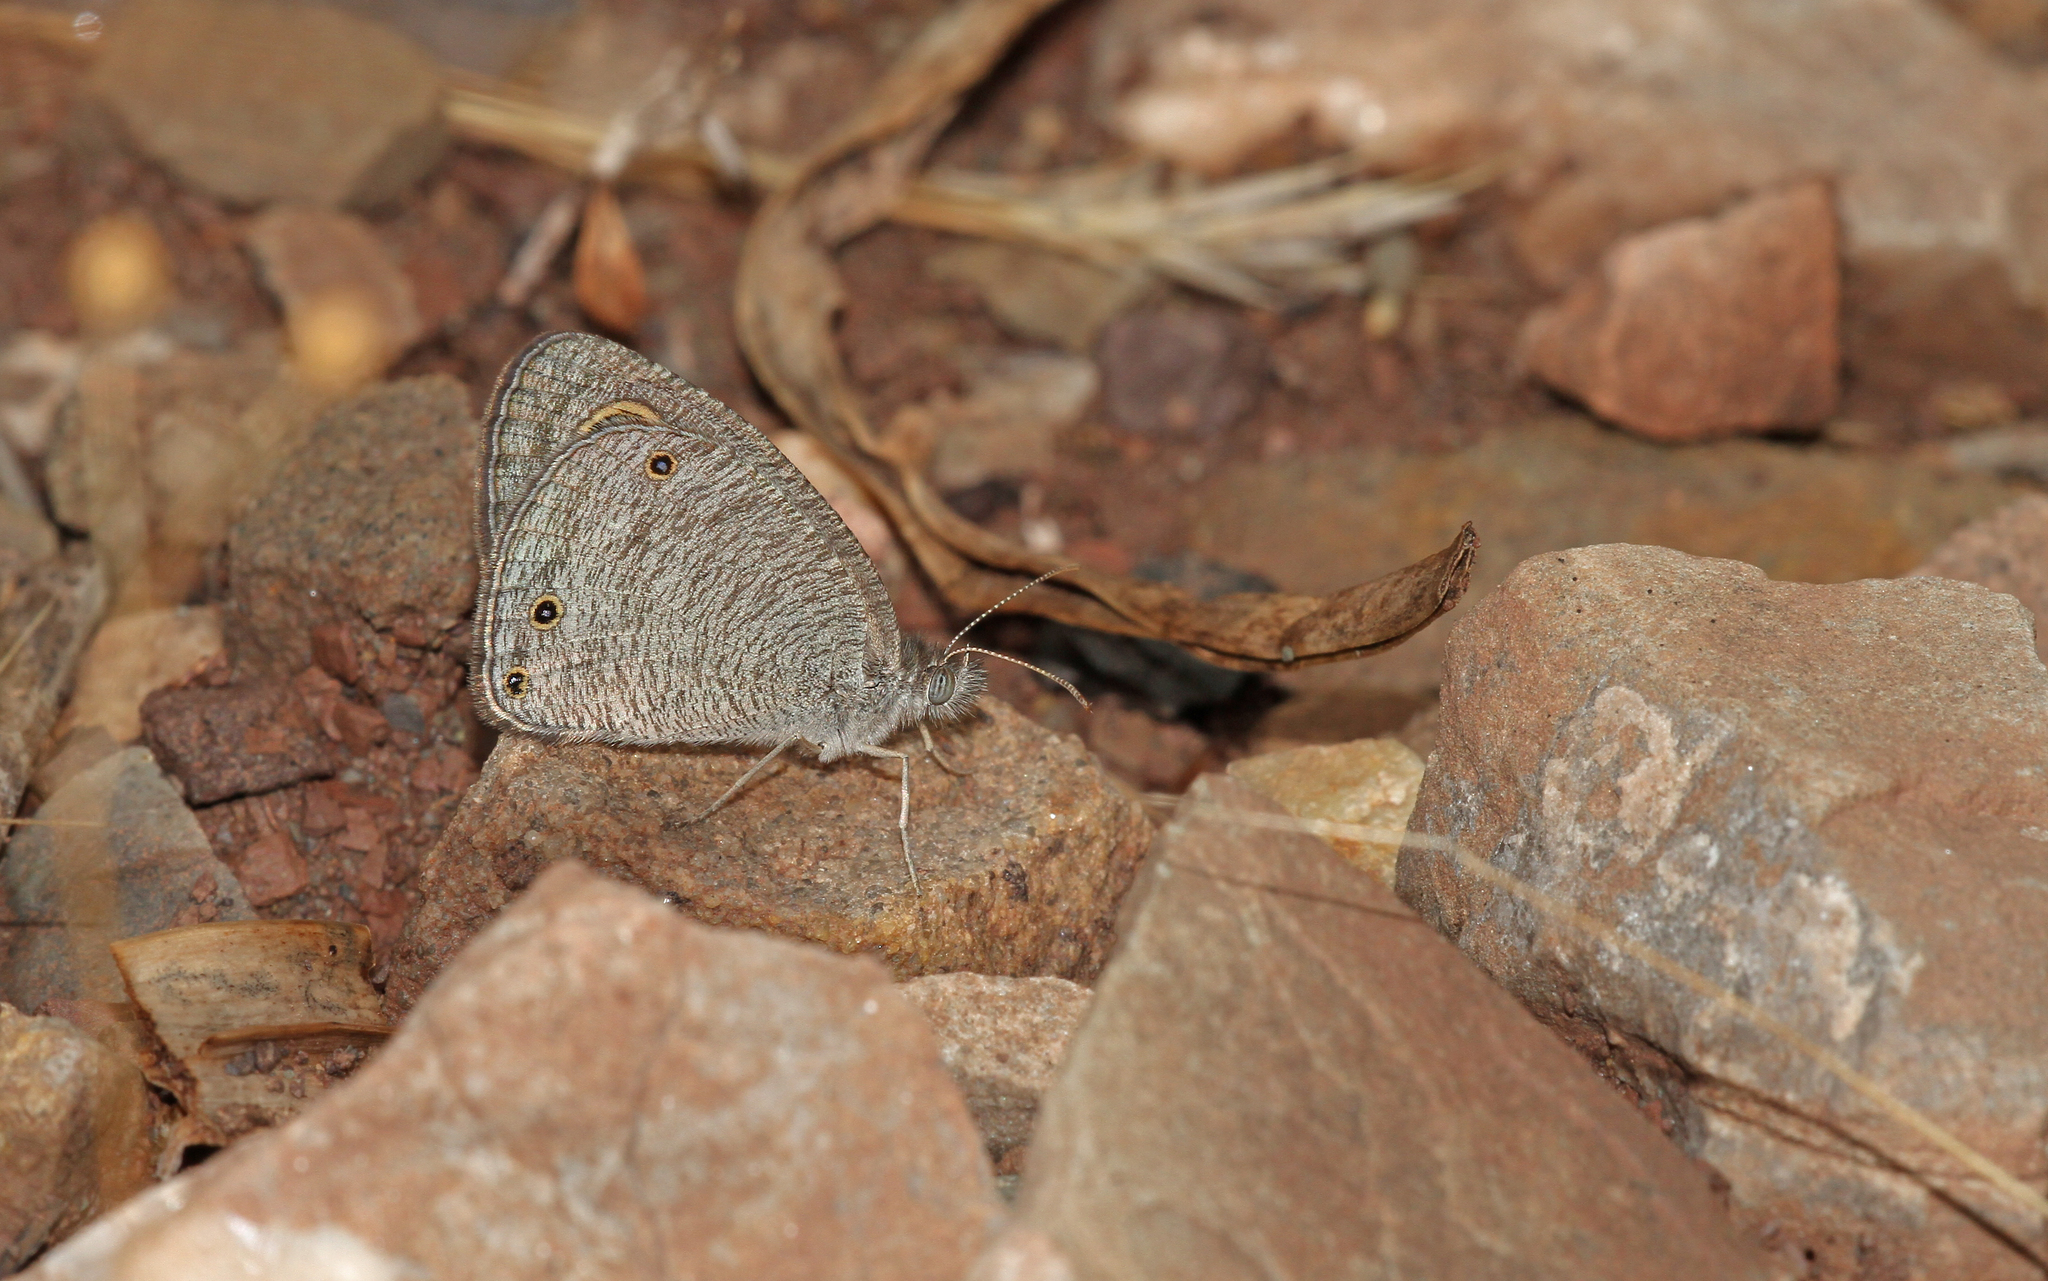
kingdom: Animalia
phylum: Arthropoda
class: Insecta
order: Lepidoptera
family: Nymphalidae
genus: Ypthima
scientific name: Ypthima asterope
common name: African ringlet
